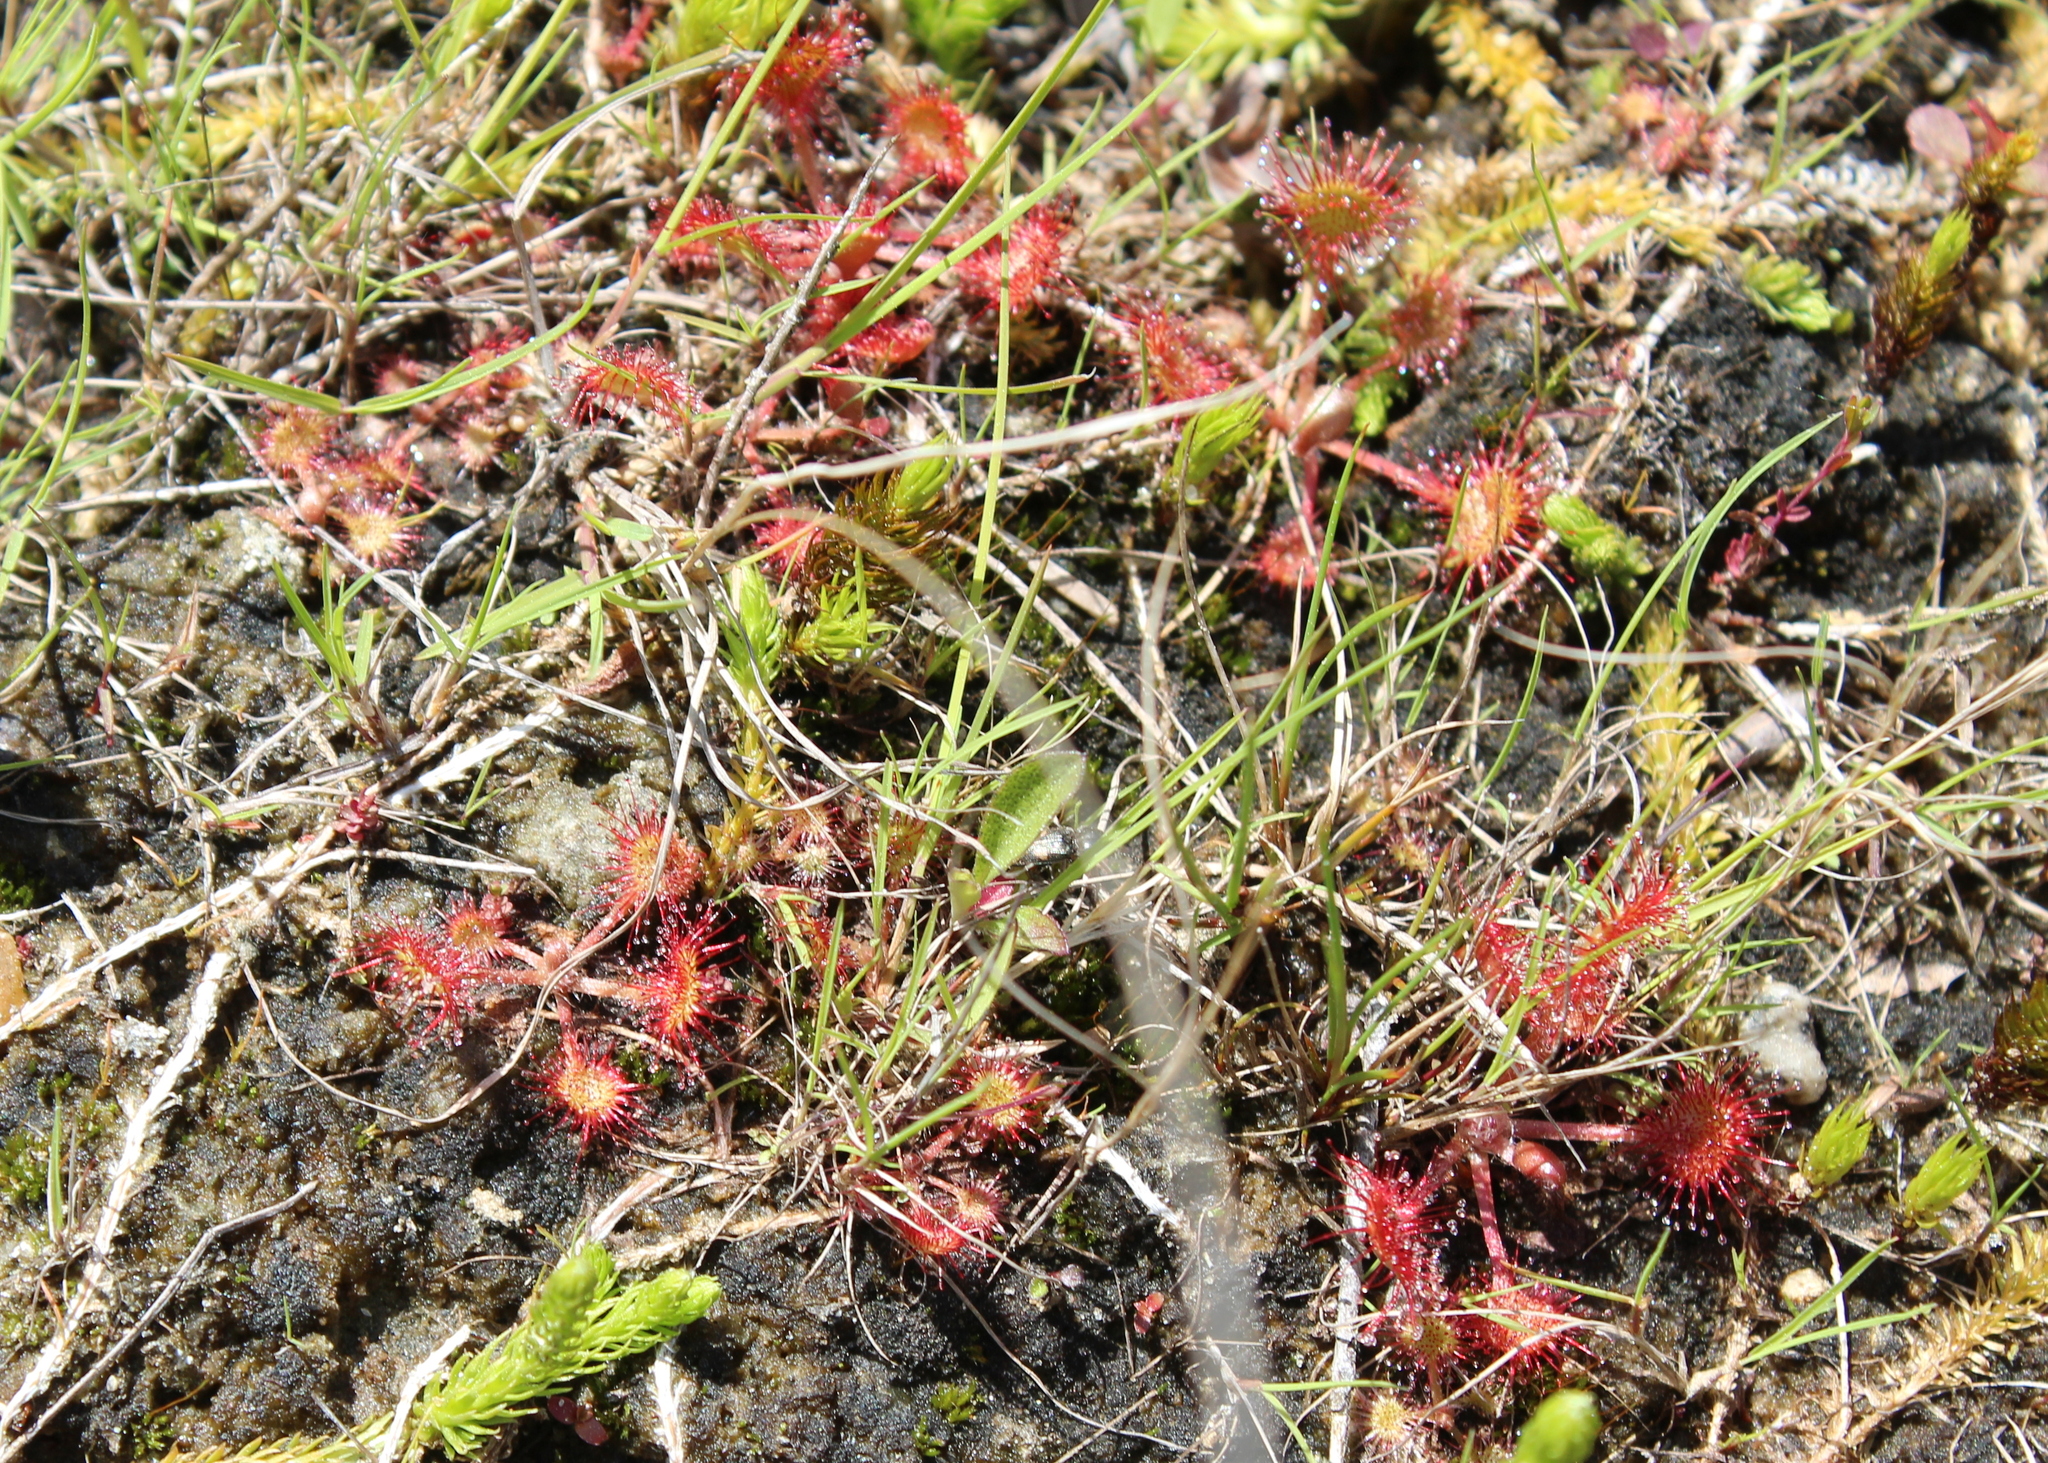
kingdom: Plantae
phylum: Tracheophyta
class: Magnoliopsida
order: Caryophyllales
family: Droseraceae
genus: Drosera
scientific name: Drosera rotundifolia
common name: Round-leaved sundew
